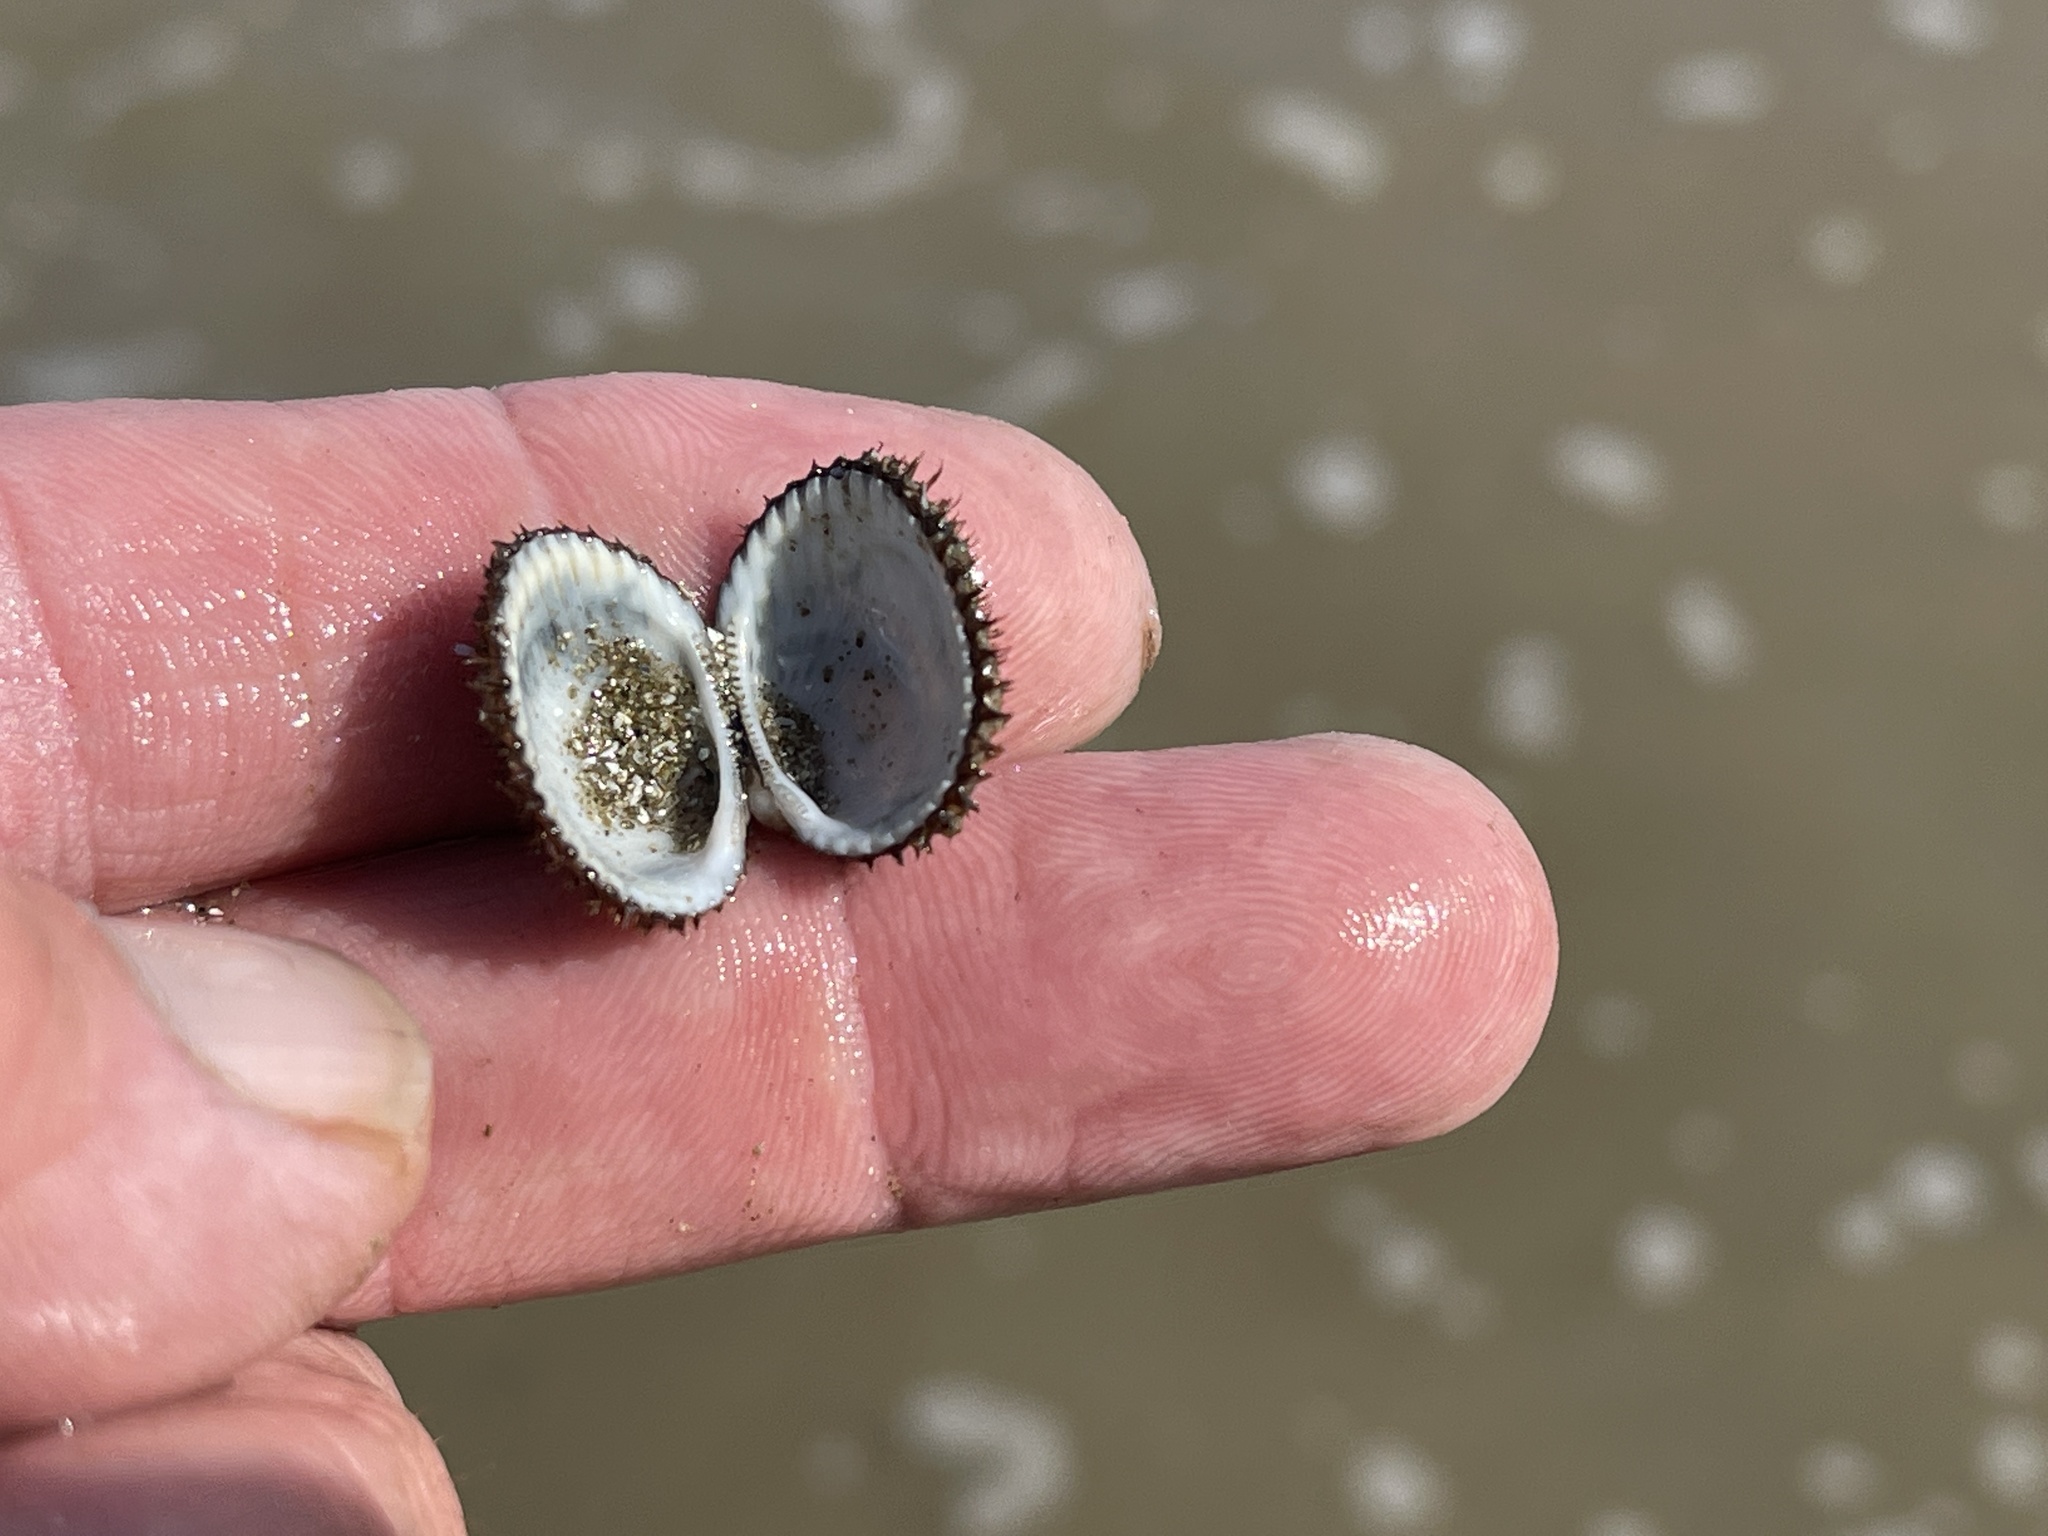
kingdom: Animalia
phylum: Mollusca
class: Bivalvia
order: Arcida
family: Arcidae
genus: Lunarca
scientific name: Lunarca ovalis
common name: Blood ark
